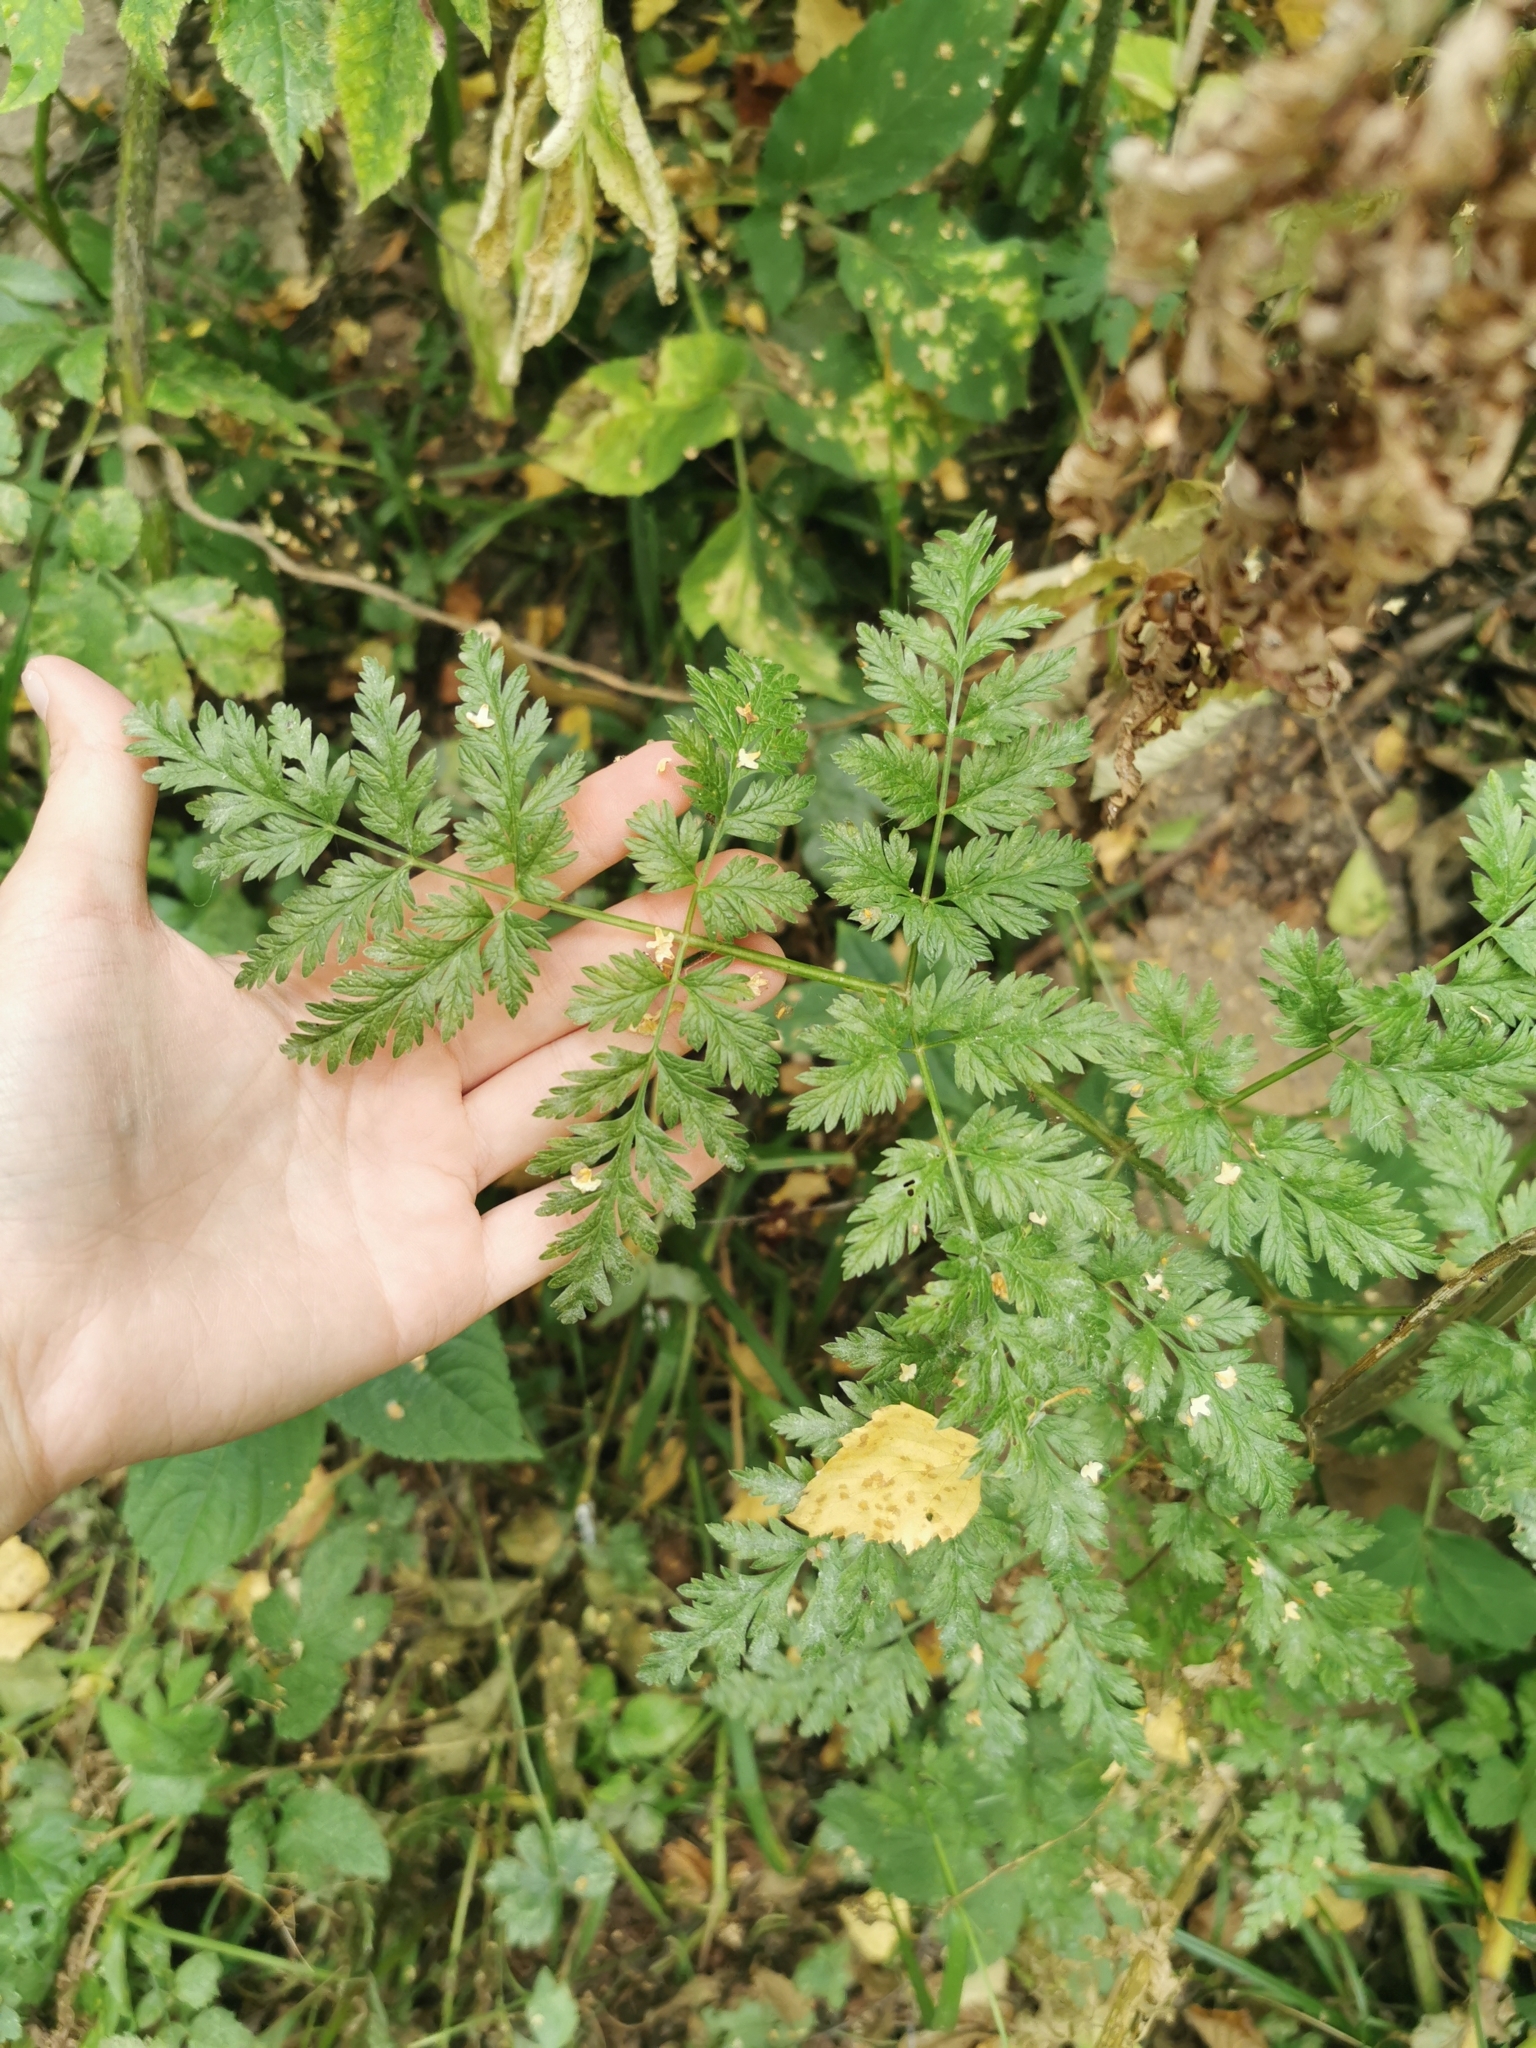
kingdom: Plantae
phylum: Tracheophyta
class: Magnoliopsida
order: Apiales
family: Apiaceae
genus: Anthriscus
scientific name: Anthriscus sylvestris
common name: Cow parsley
